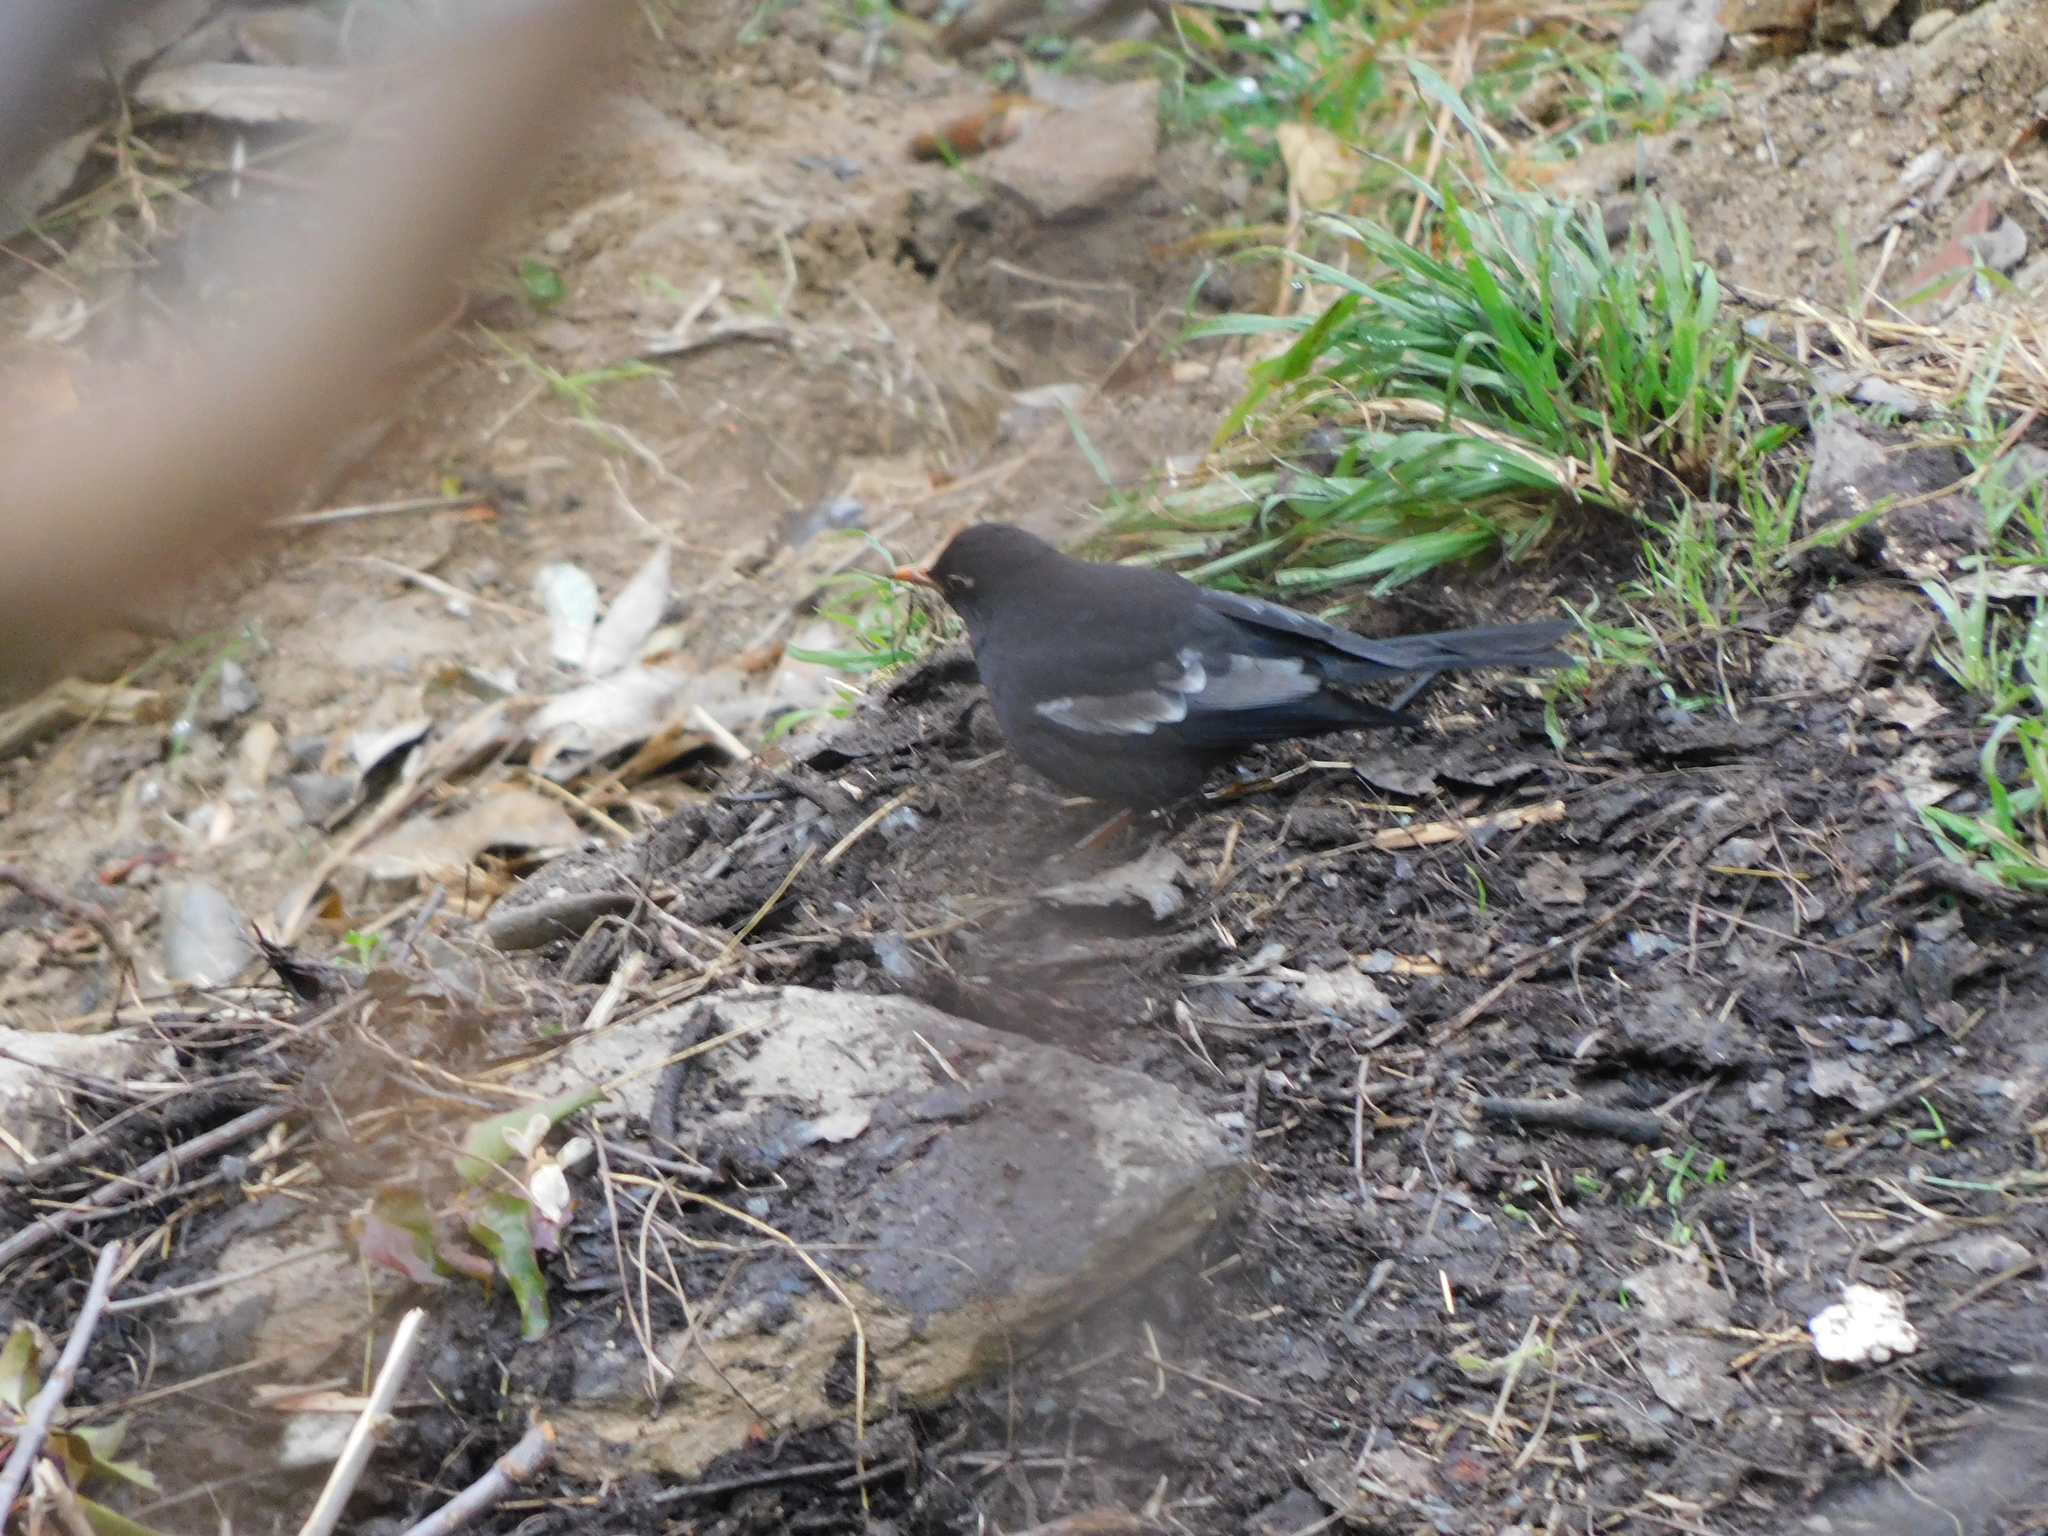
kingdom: Animalia
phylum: Chordata
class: Aves
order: Passeriformes
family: Turdidae
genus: Turdus
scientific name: Turdus boulboul
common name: Grey-winged blackbird
